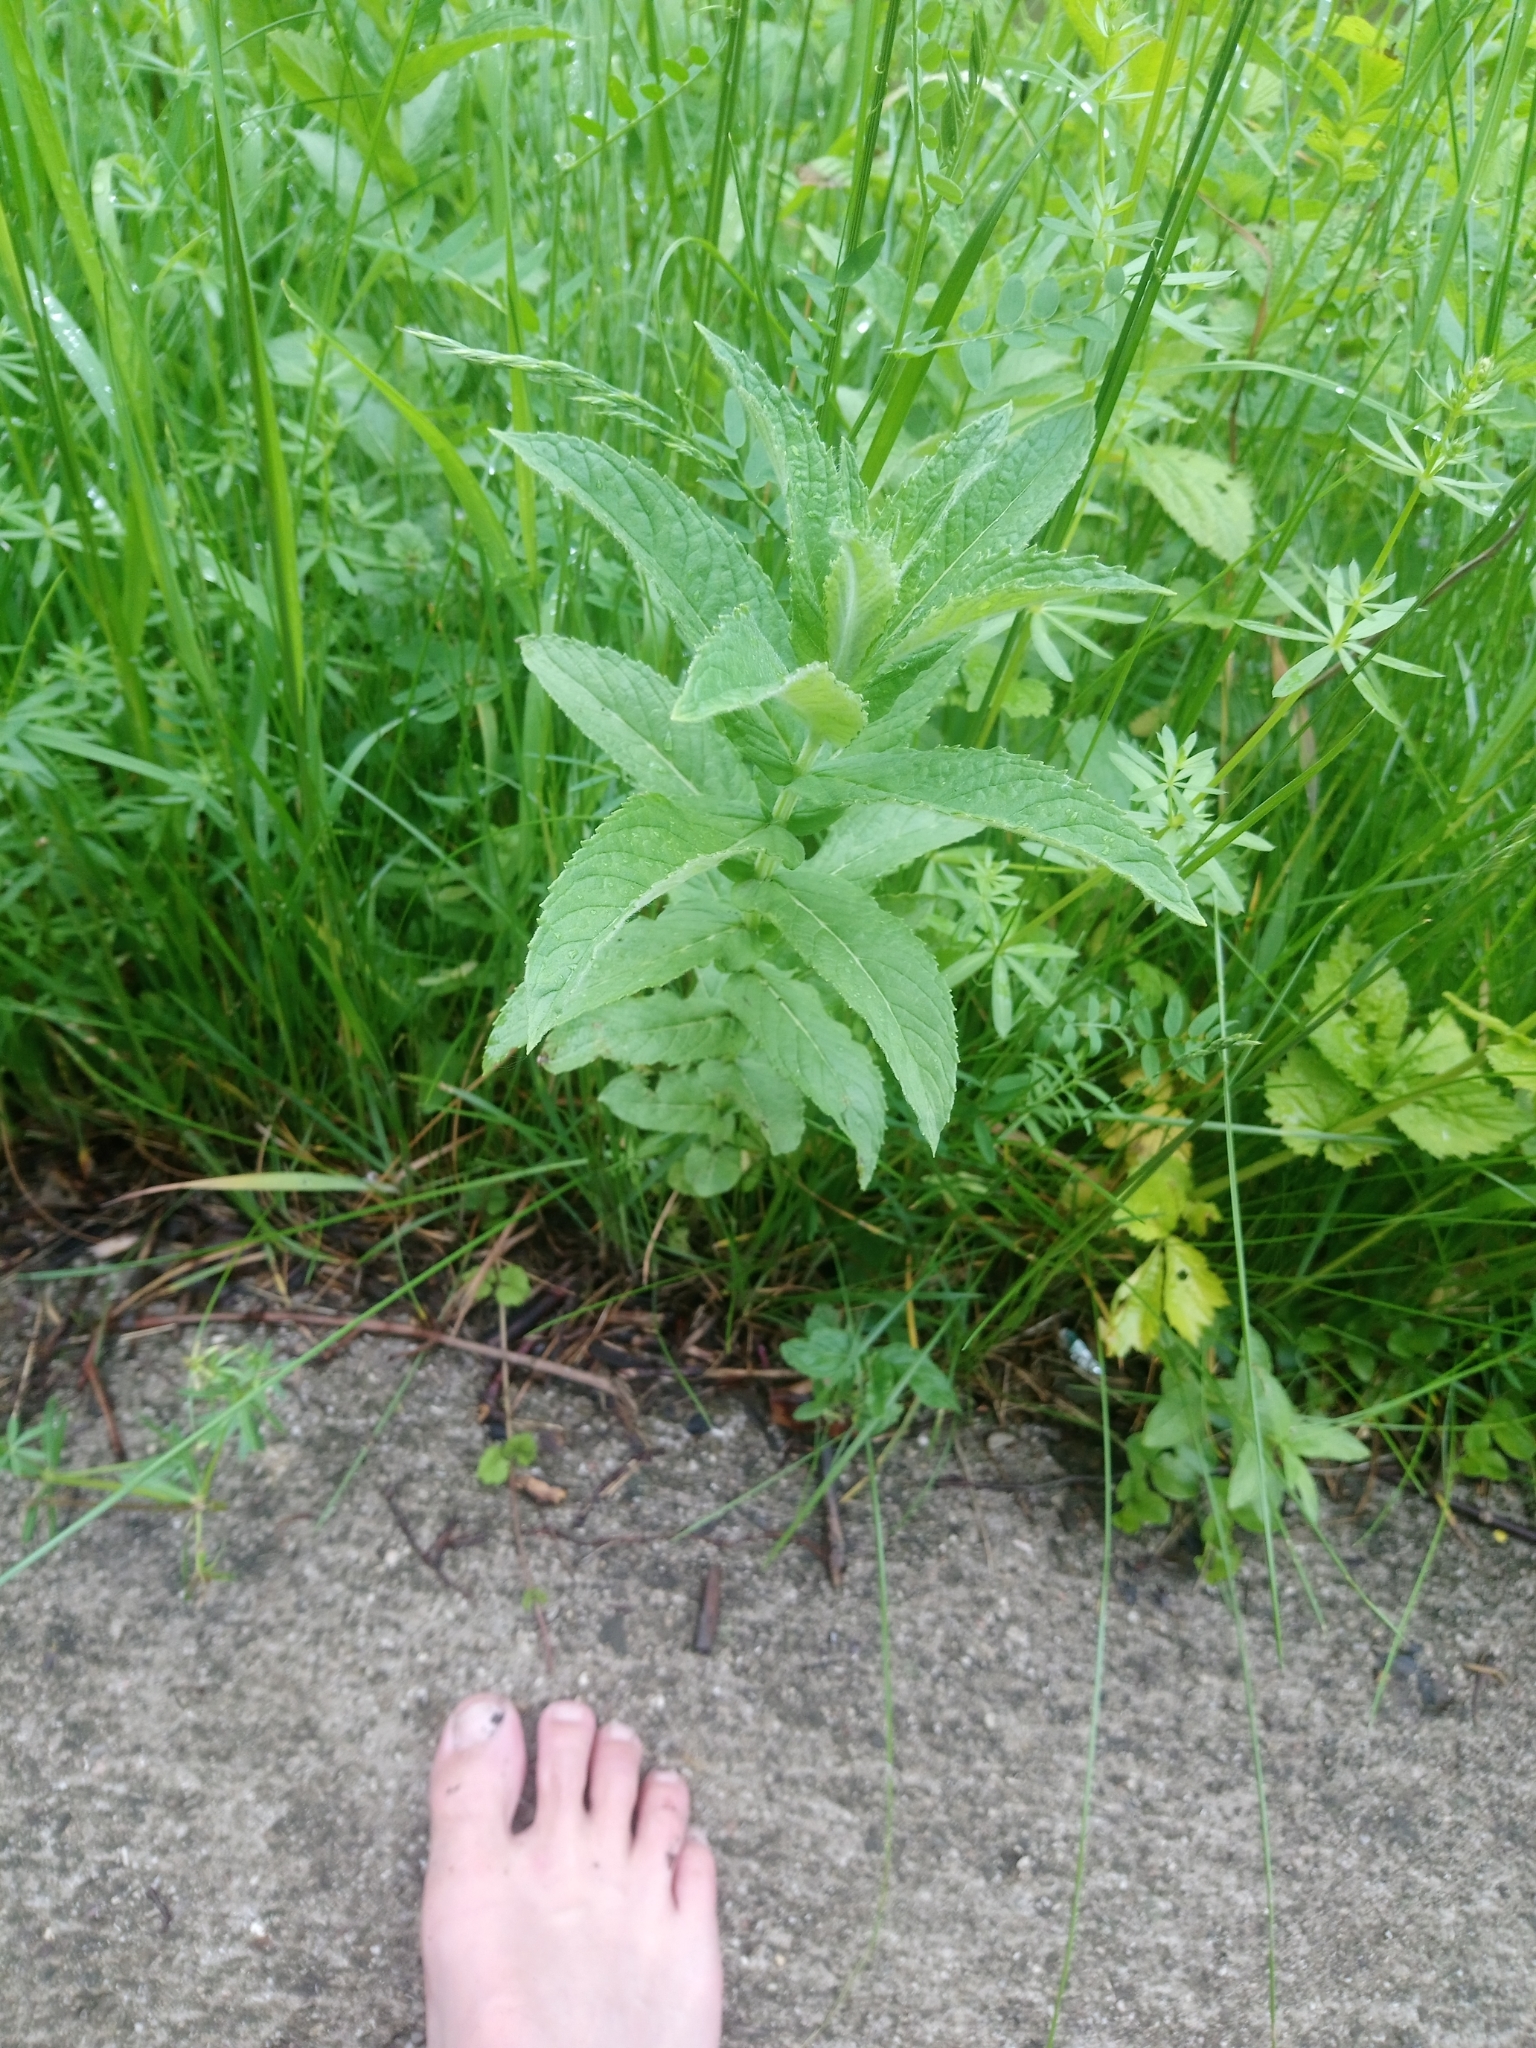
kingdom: Plantae
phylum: Tracheophyta
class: Magnoliopsida
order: Lamiales
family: Lamiaceae
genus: Mentha
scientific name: Mentha longifolia
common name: Horse mint
